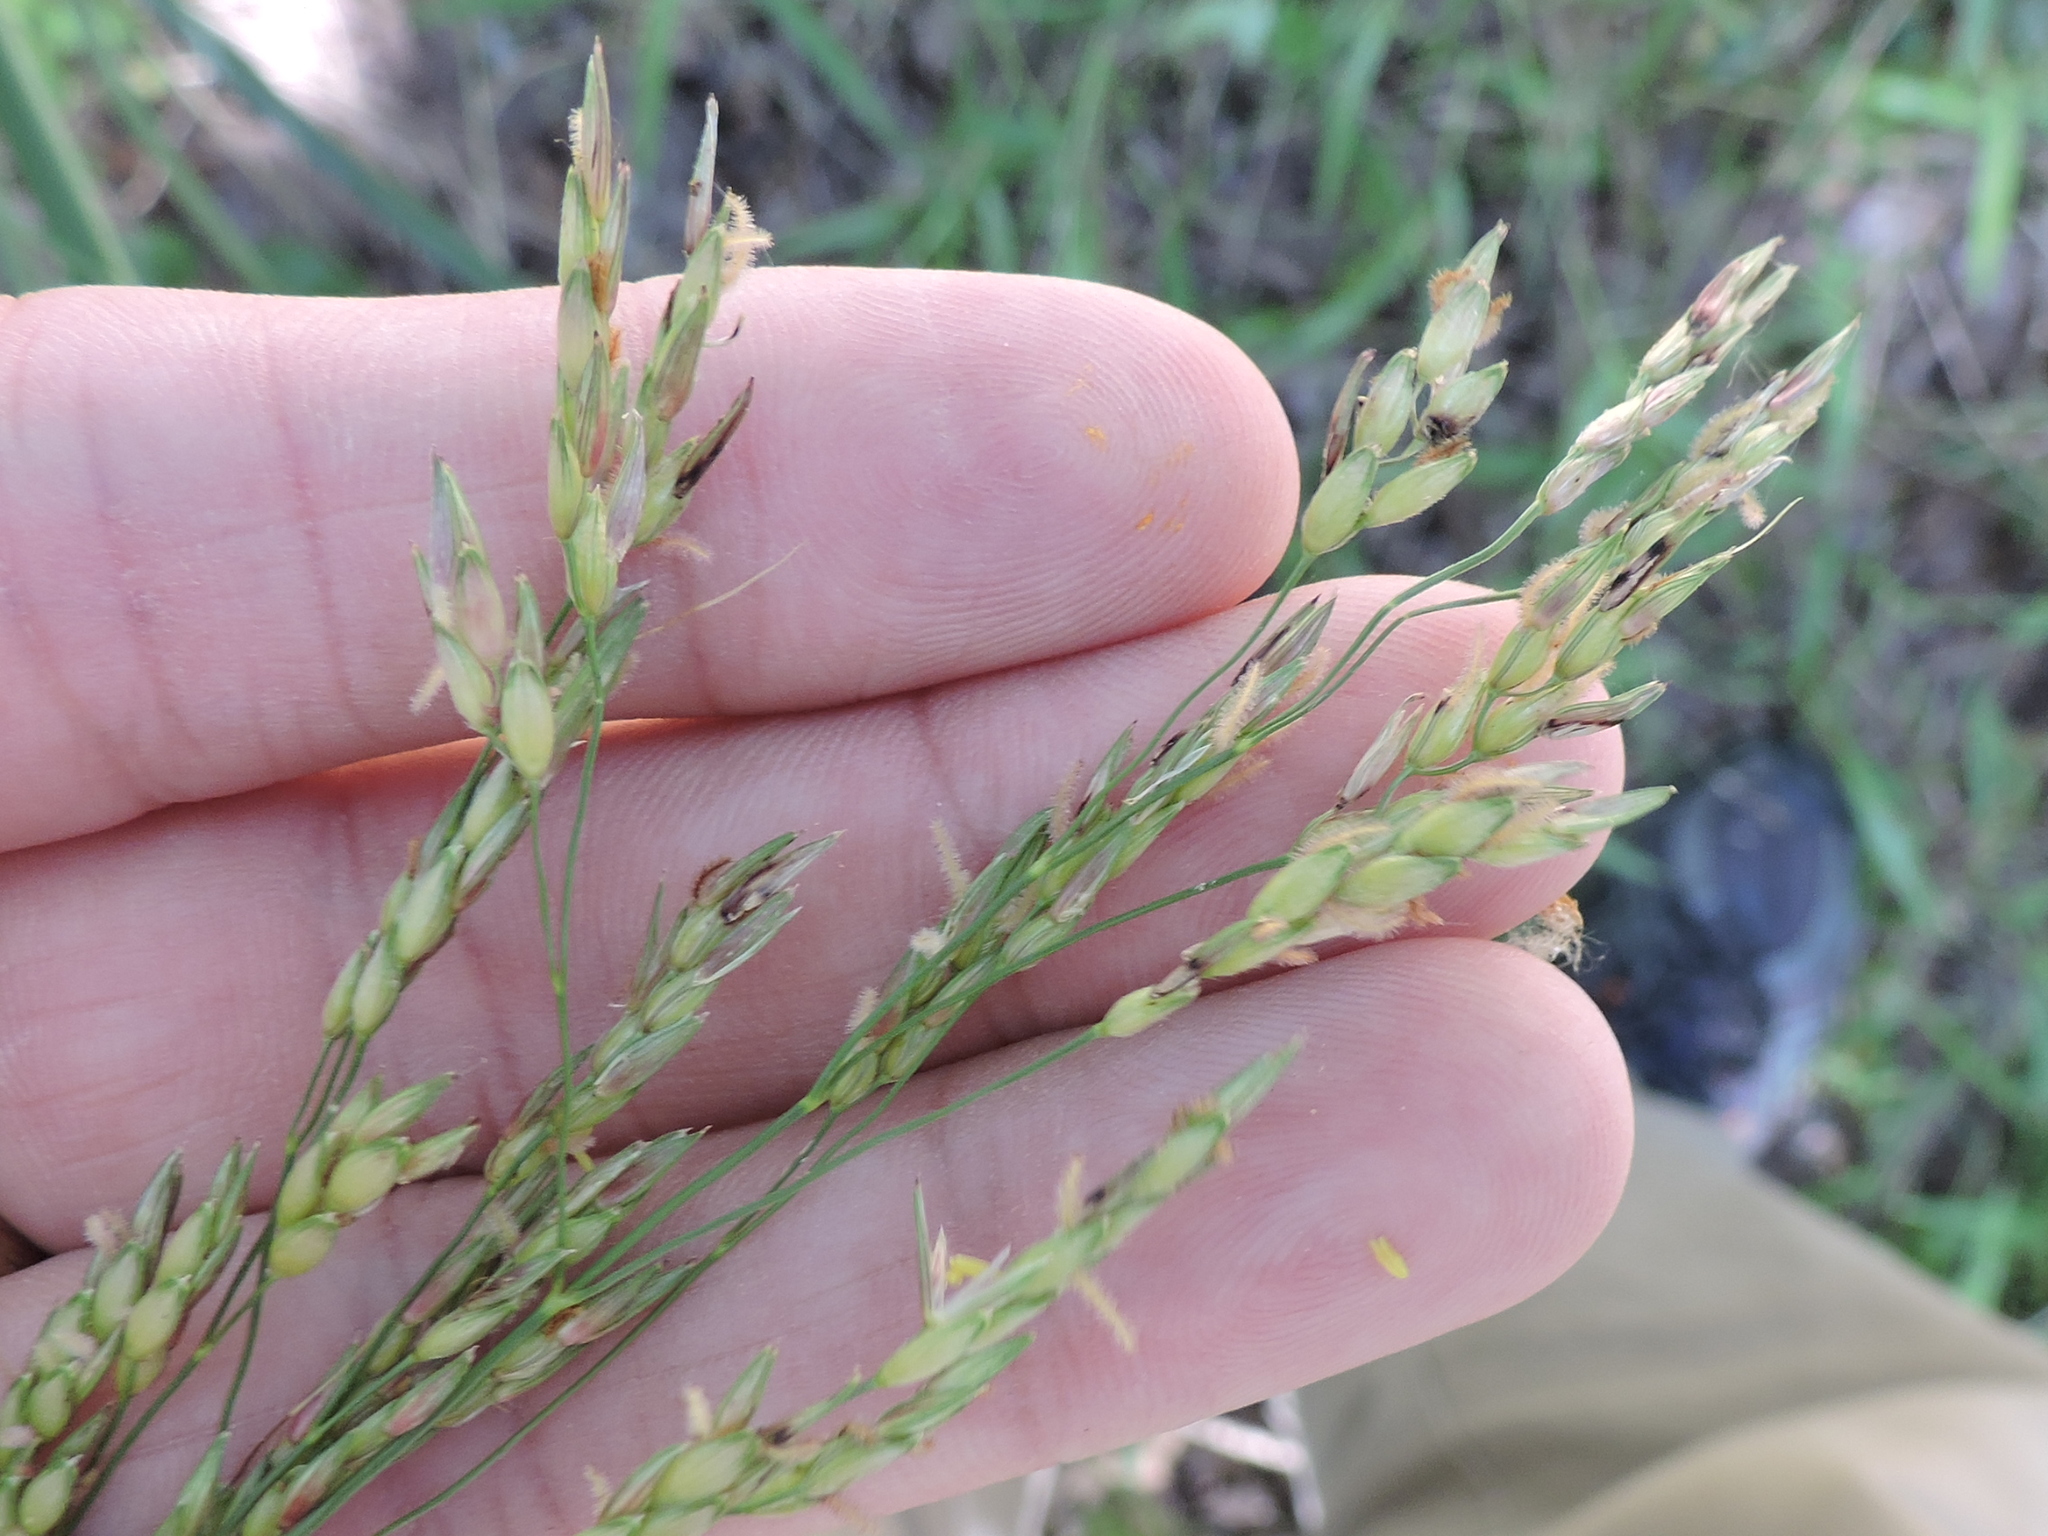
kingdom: Plantae
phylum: Tracheophyta
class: Liliopsida
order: Poales
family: Poaceae
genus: Sorghum
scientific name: Sorghum halepense
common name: Johnson-grass
